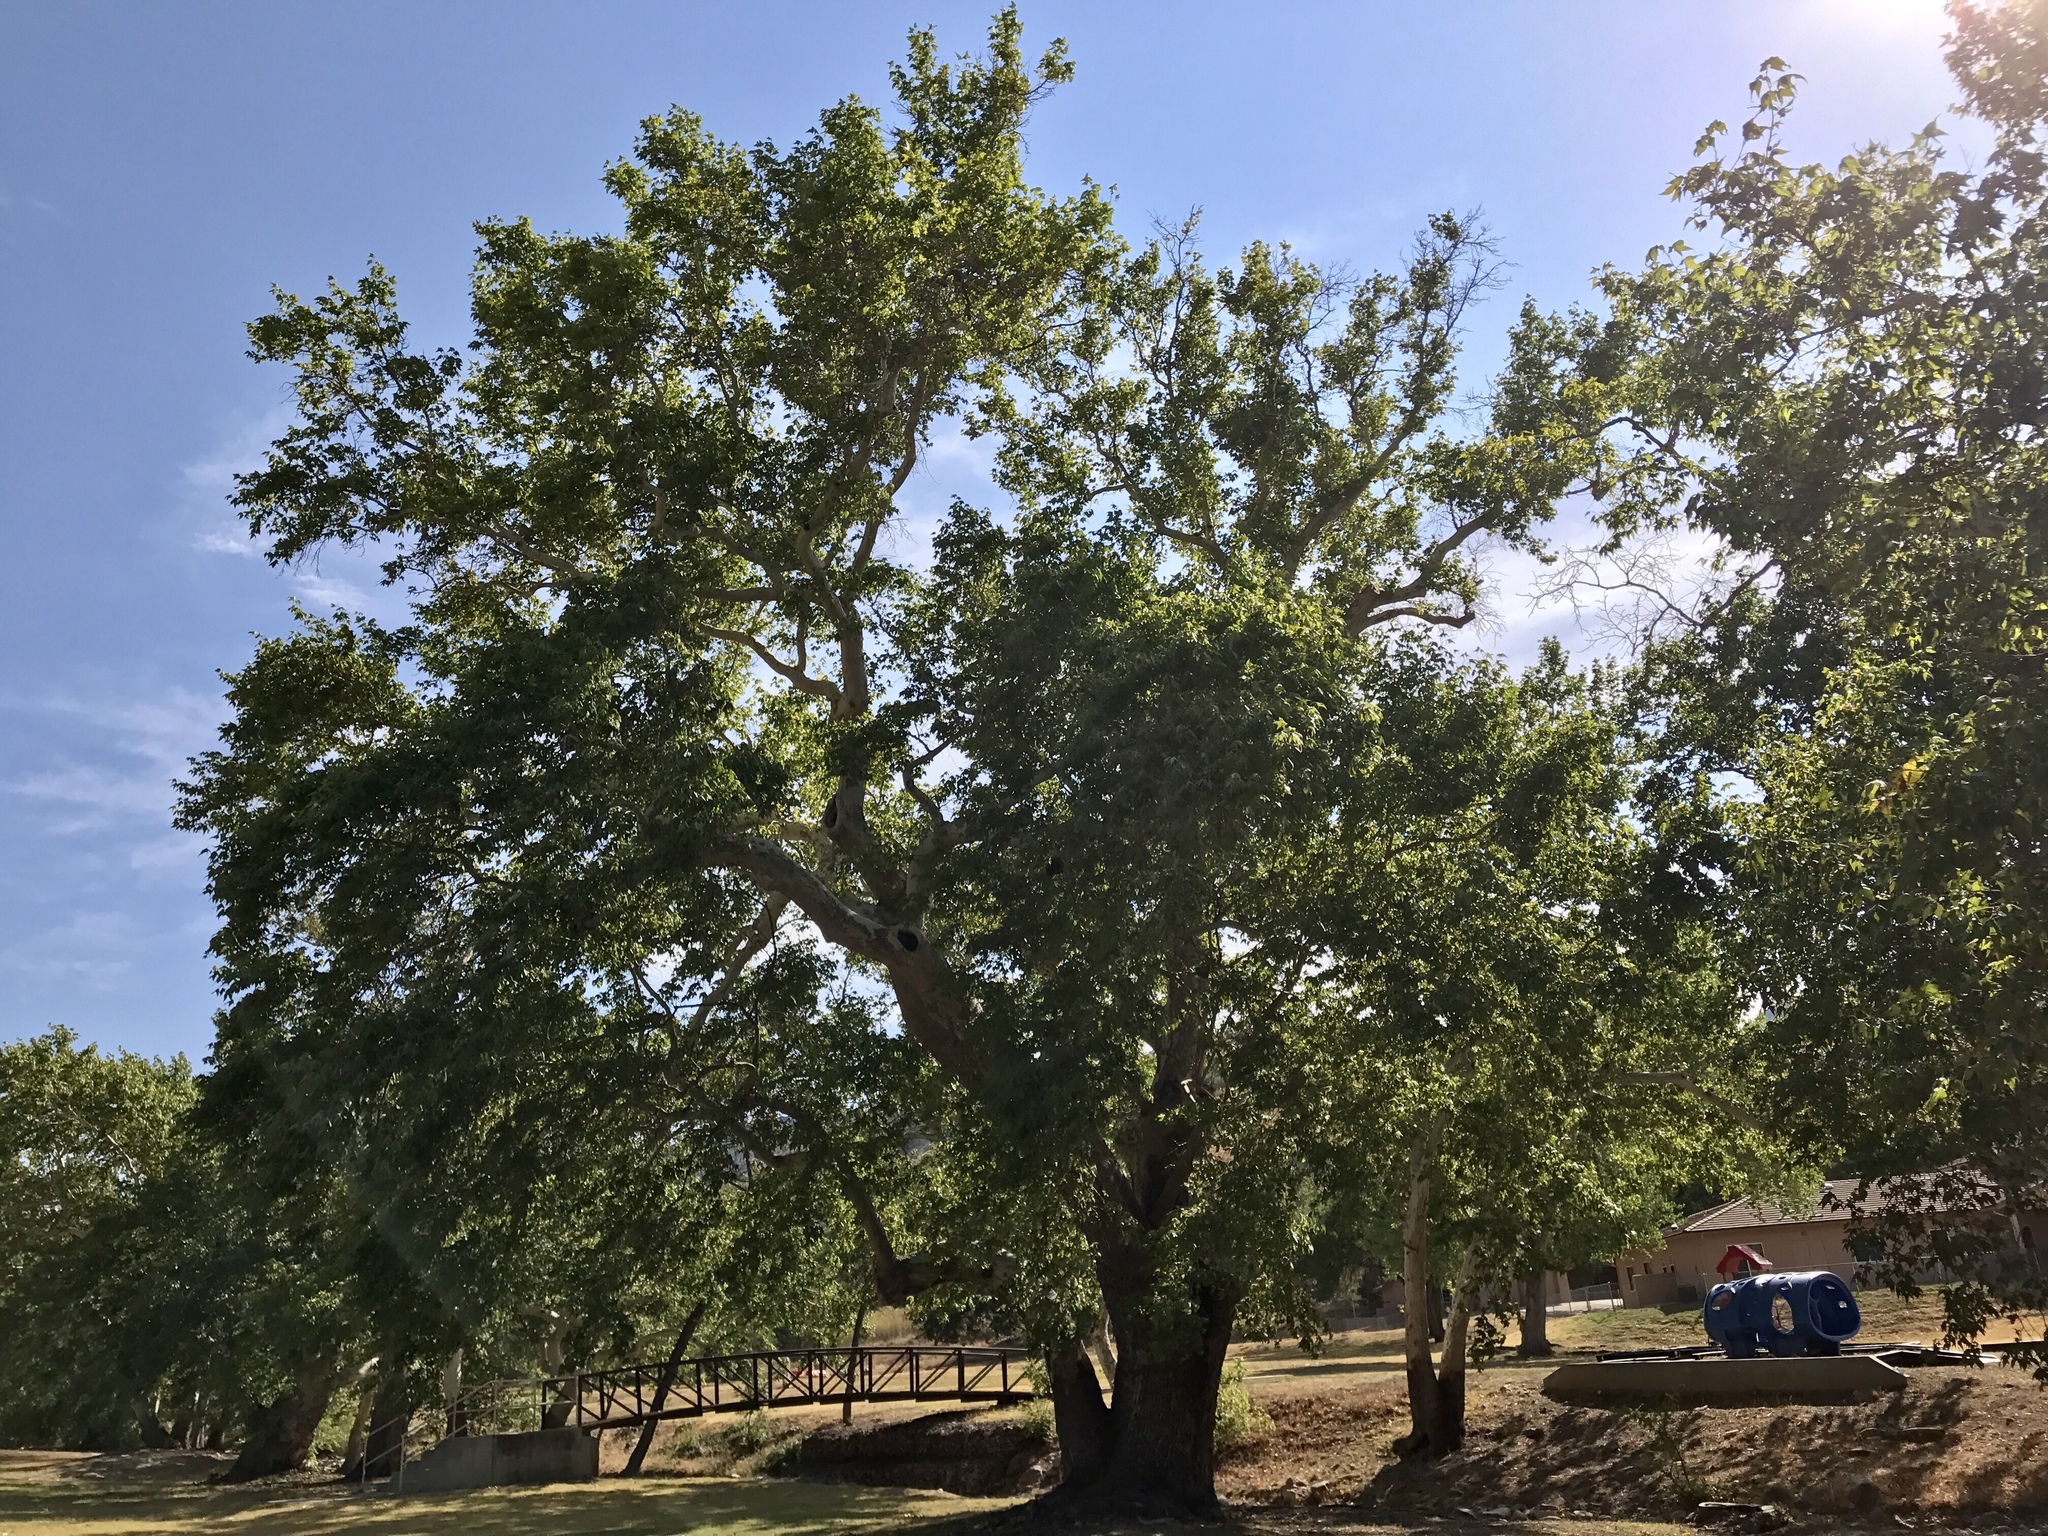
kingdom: Plantae
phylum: Tracheophyta
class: Magnoliopsida
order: Proteales
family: Platanaceae
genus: Platanus
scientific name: Platanus wrightii
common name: Arizona sycamore
